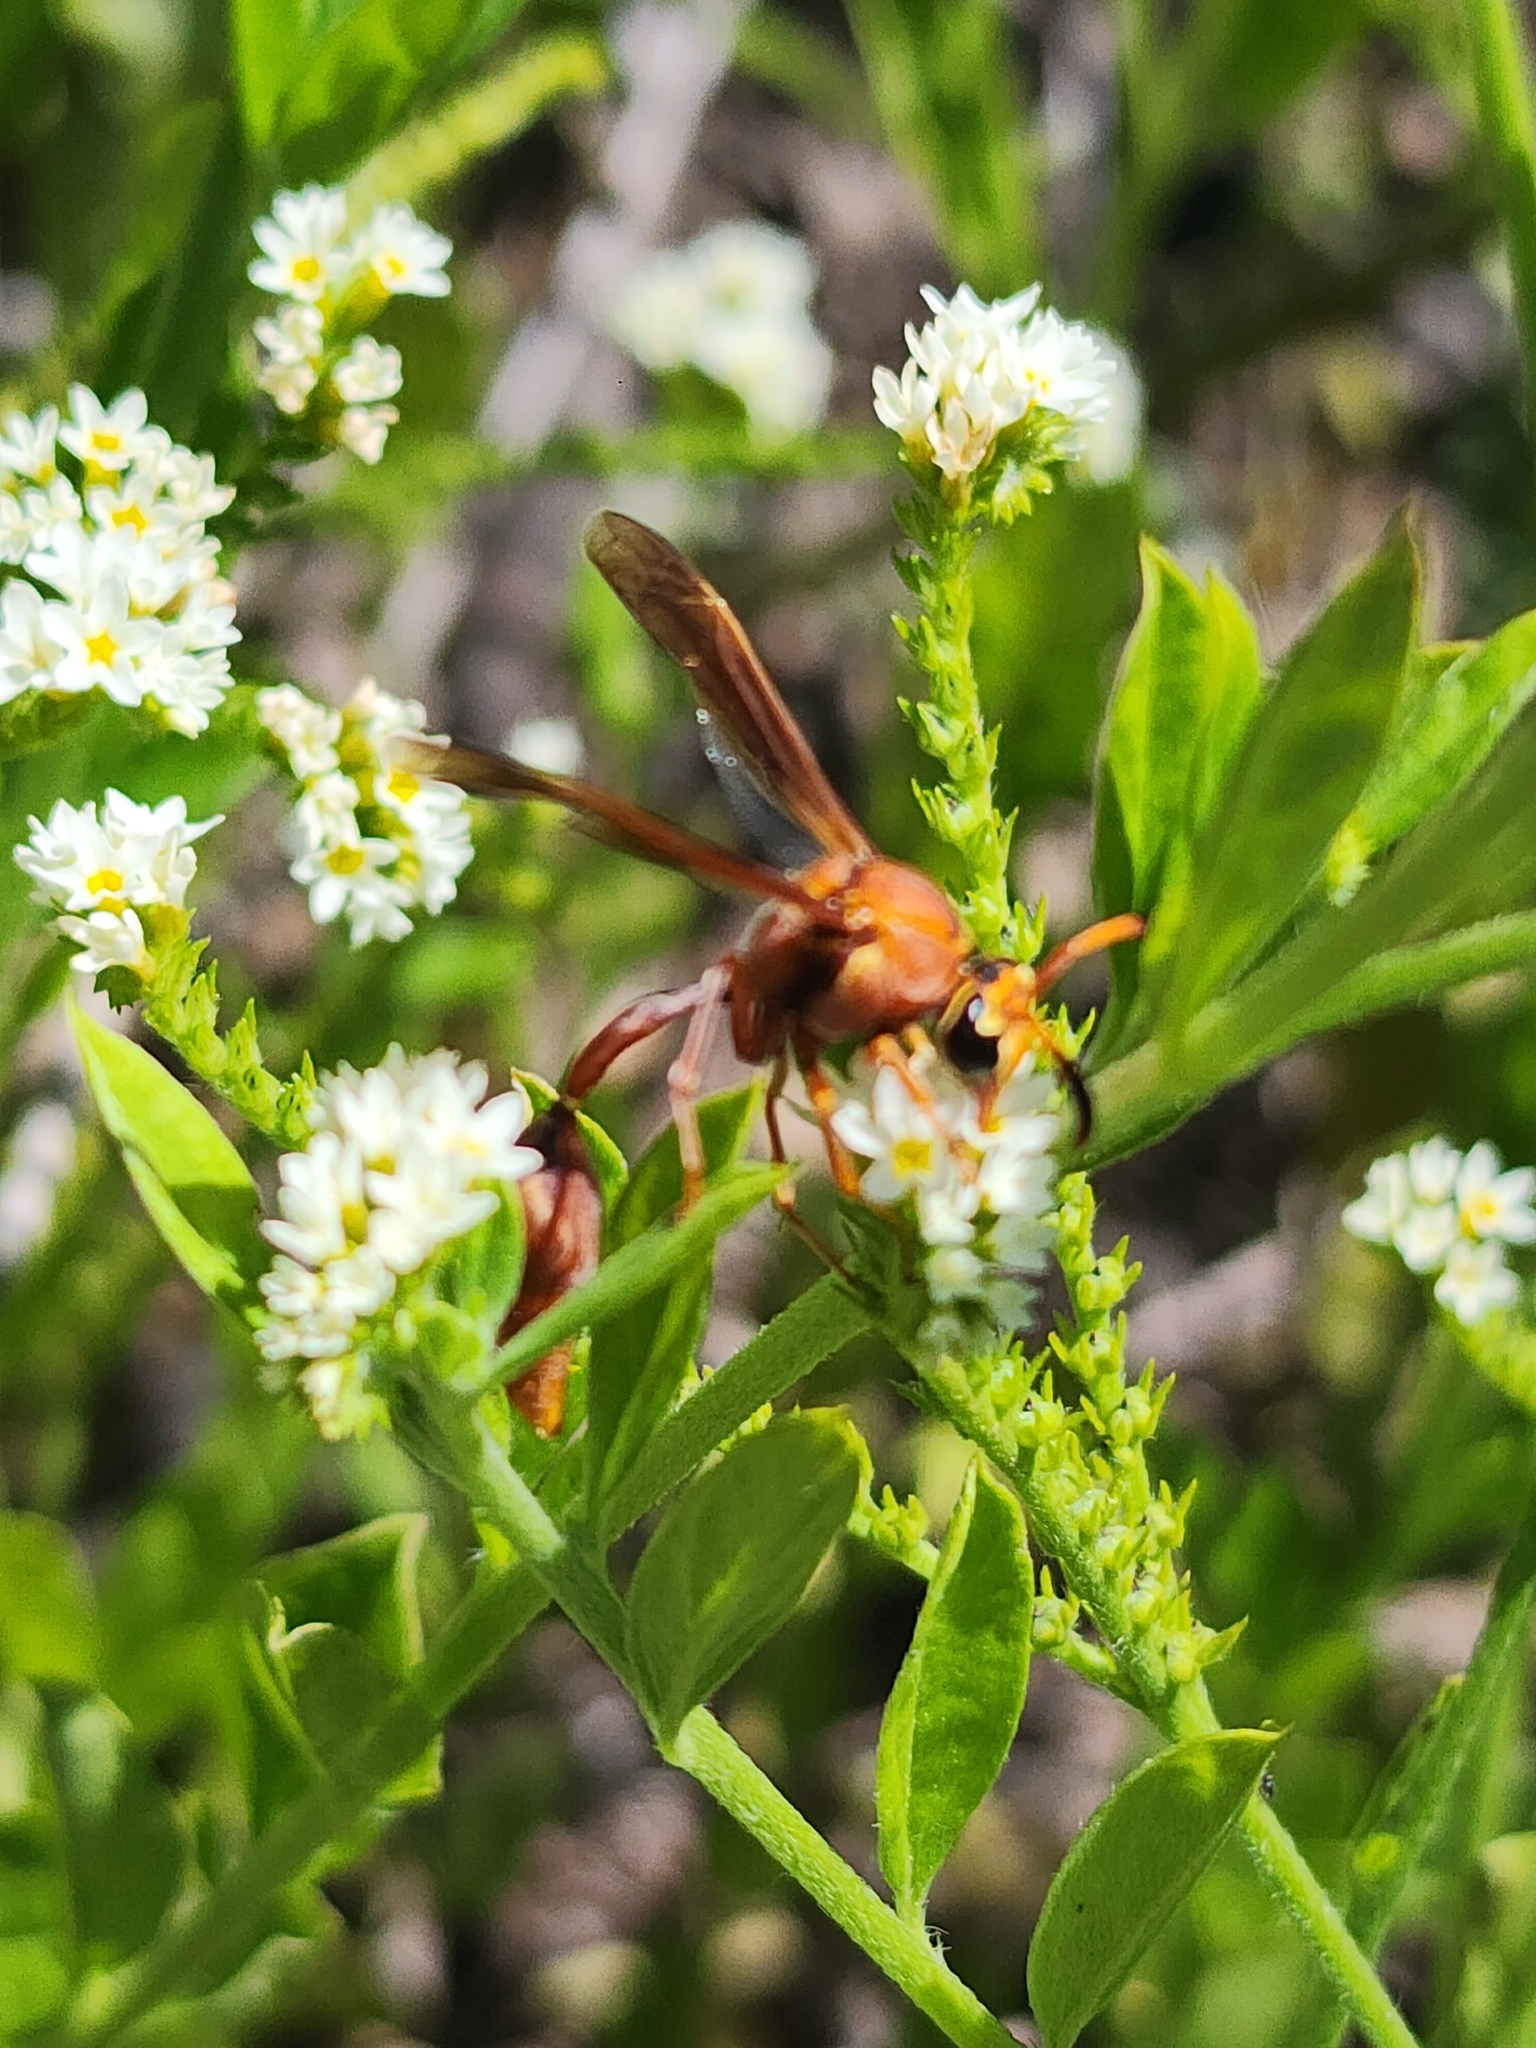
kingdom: Animalia
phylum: Arthropoda
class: Insecta
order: Hymenoptera
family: Eumenidae
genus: Zeta
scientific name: Zeta argillaceum
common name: Potter wasp
